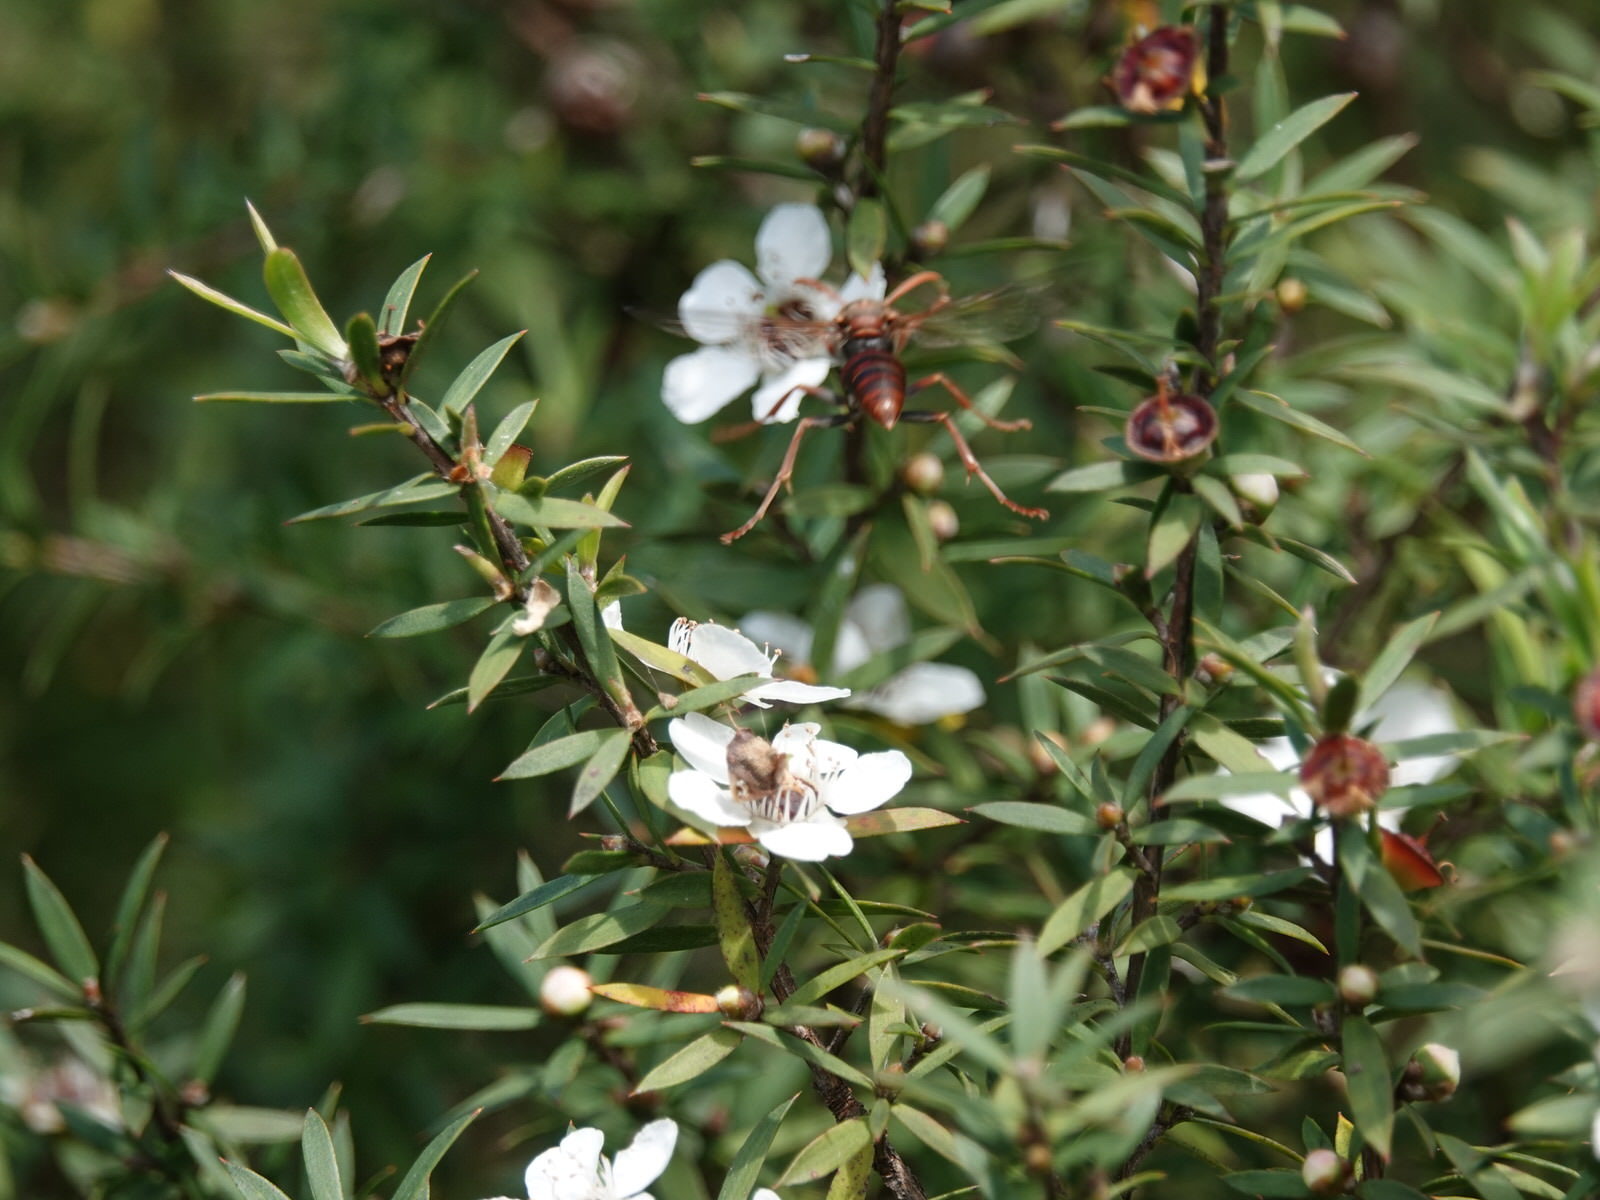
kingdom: Animalia
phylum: Arthropoda
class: Insecta
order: Hymenoptera
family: Eumenidae
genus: Polistes
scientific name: Polistes humilis
